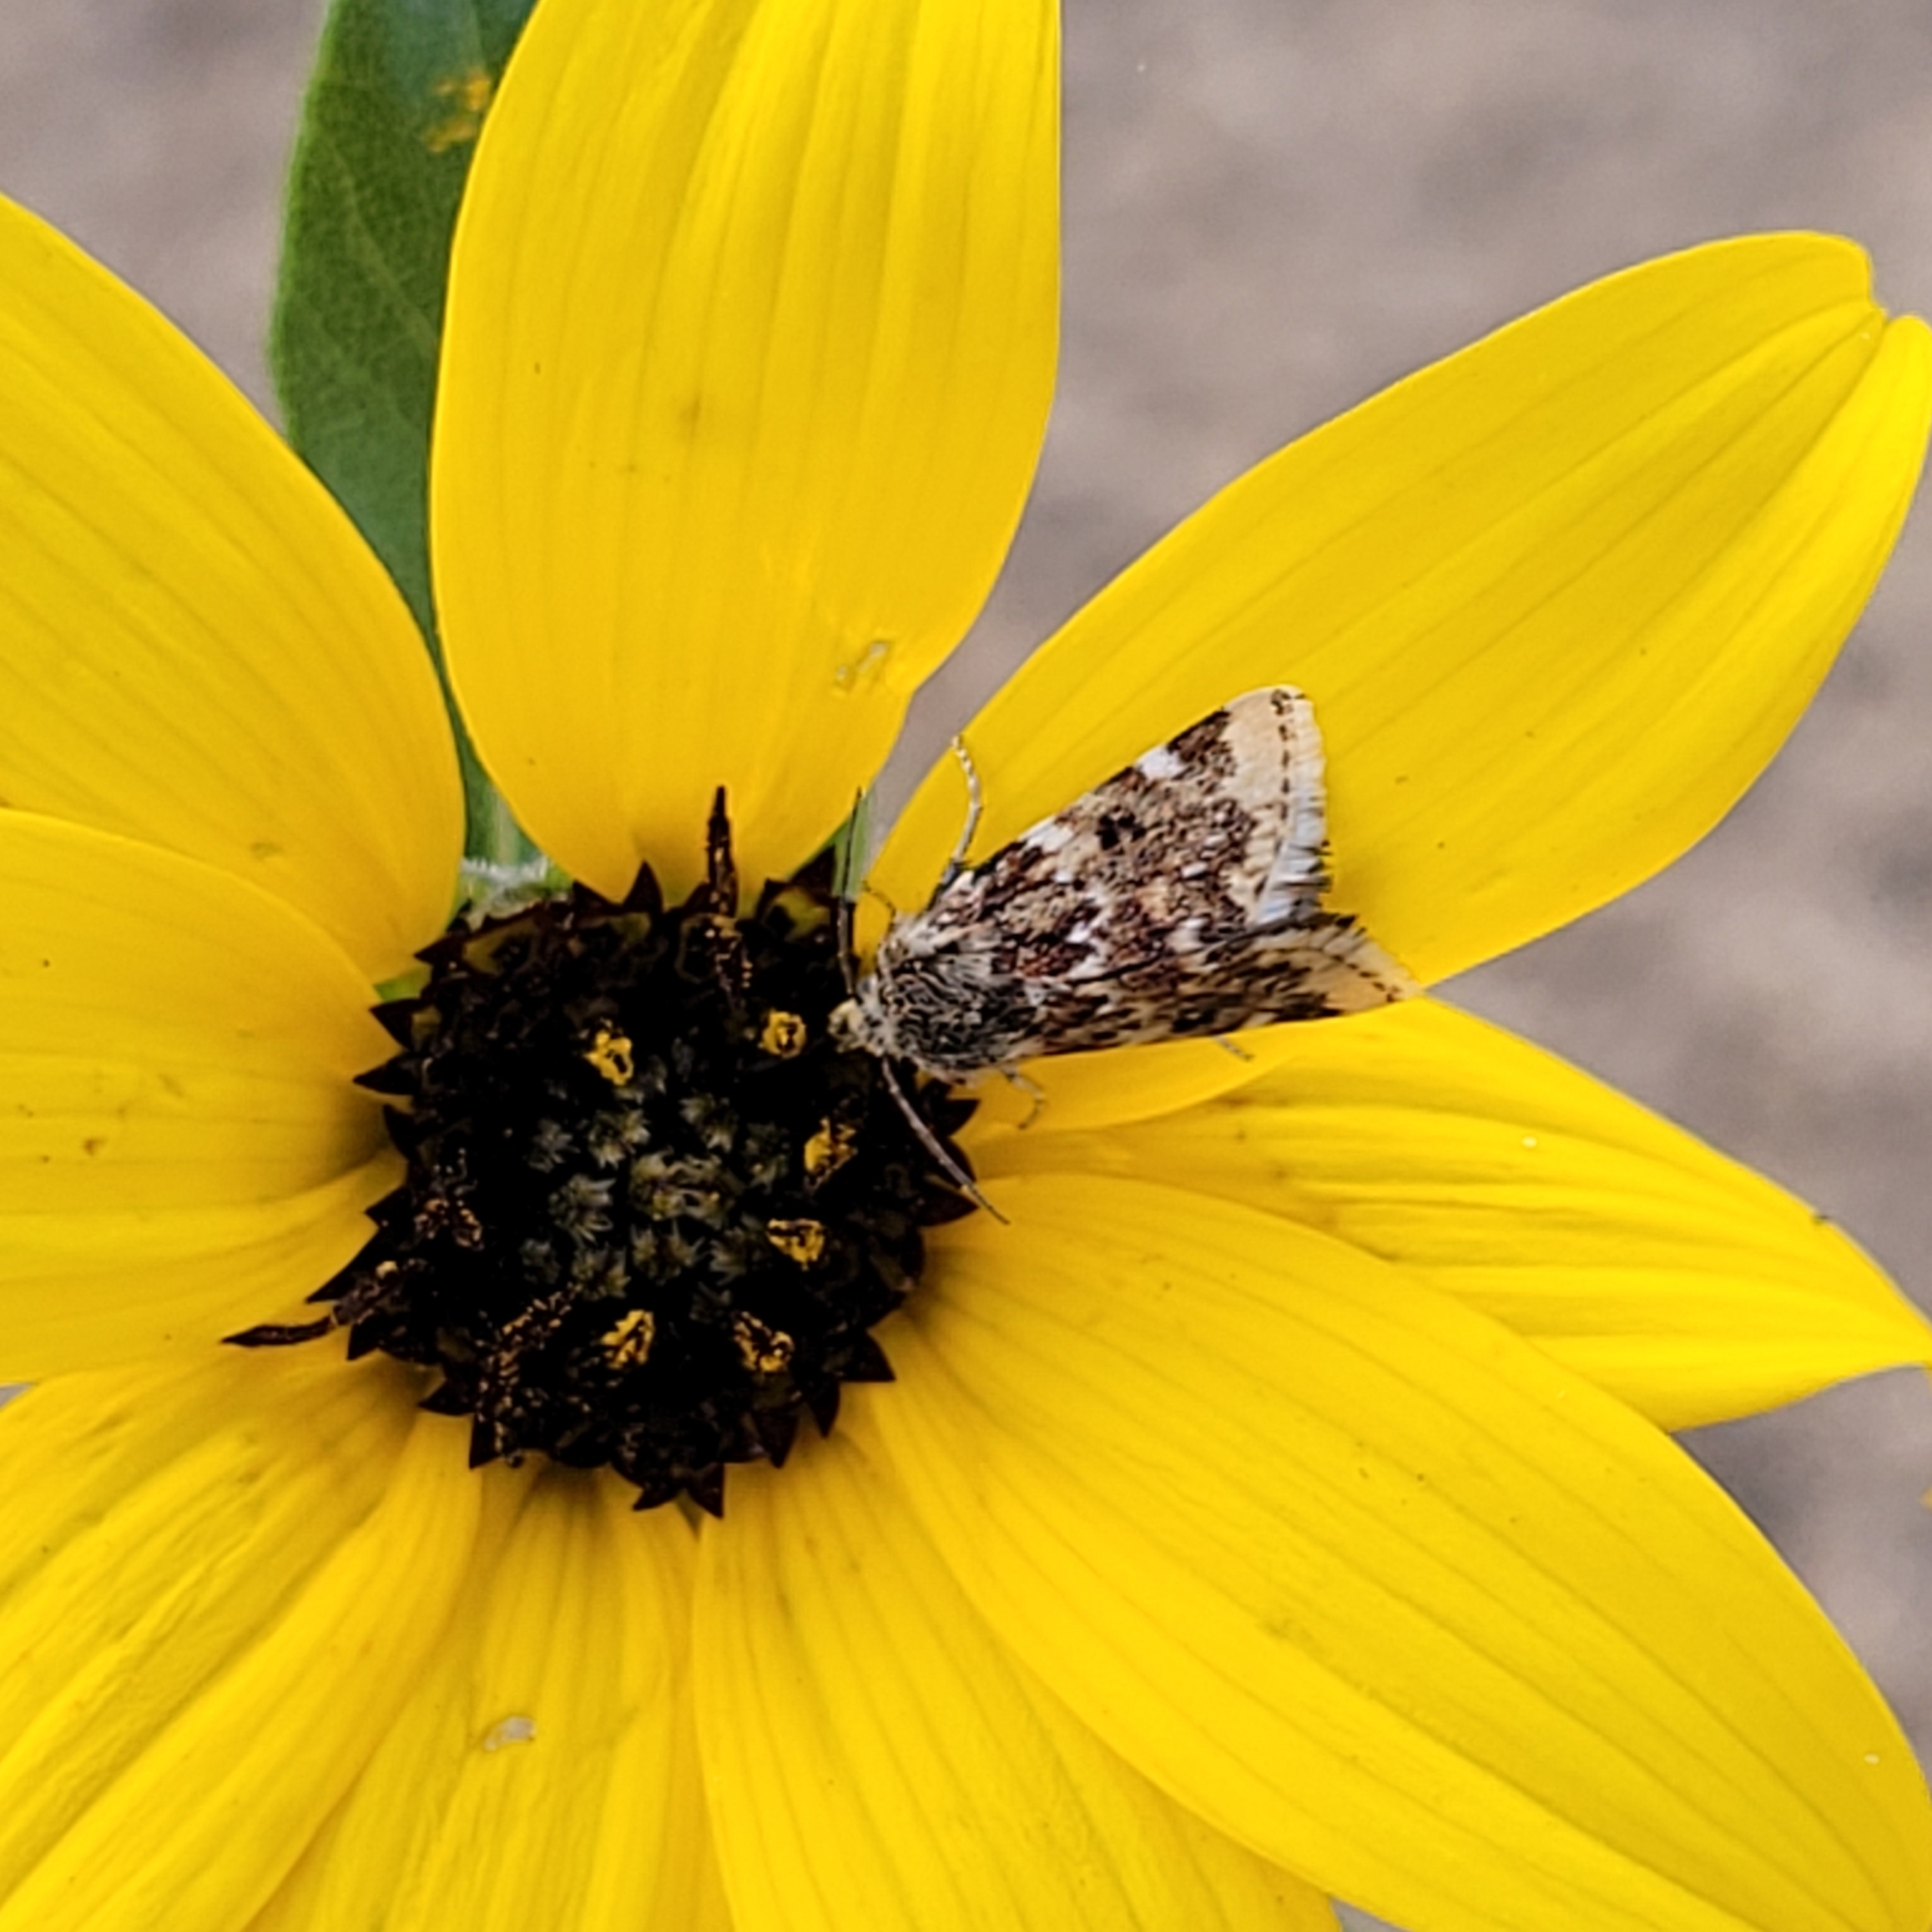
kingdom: Animalia
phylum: Arthropoda
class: Insecta
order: Lepidoptera
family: Noctuidae
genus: Schinia
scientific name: Schinia avemensis
